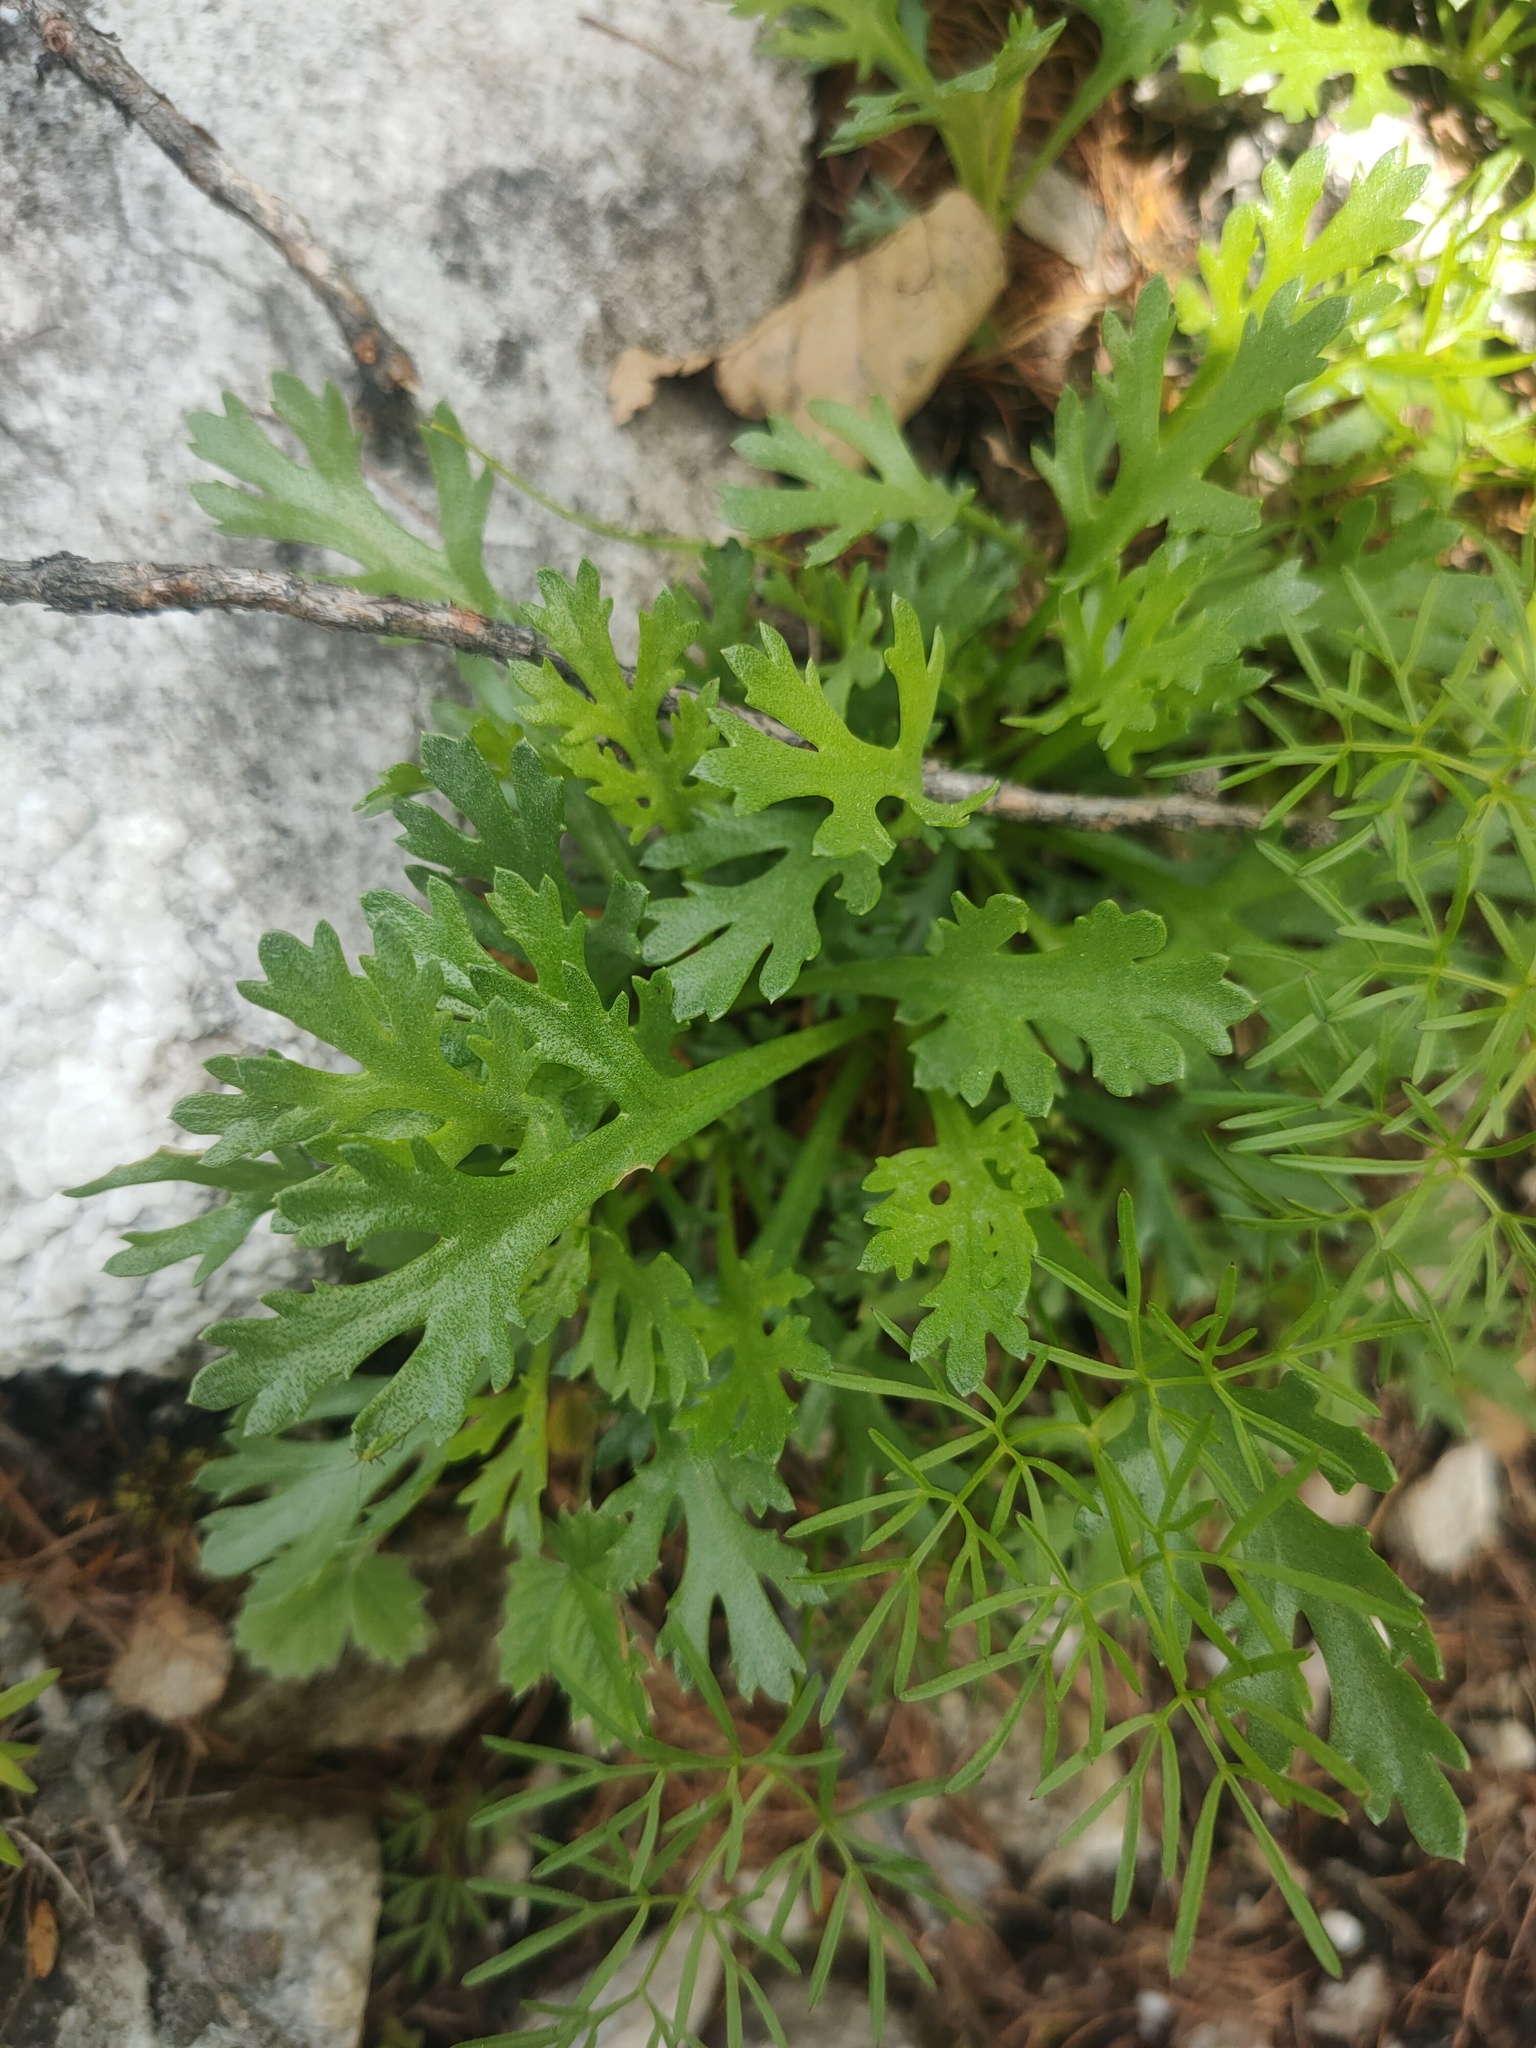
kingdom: Plantae
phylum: Tracheophyta
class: Magnoliopsida
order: Asterales
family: Asteraceae
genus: Chrysanthemum
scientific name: Chrysanthemum zawadzkii
